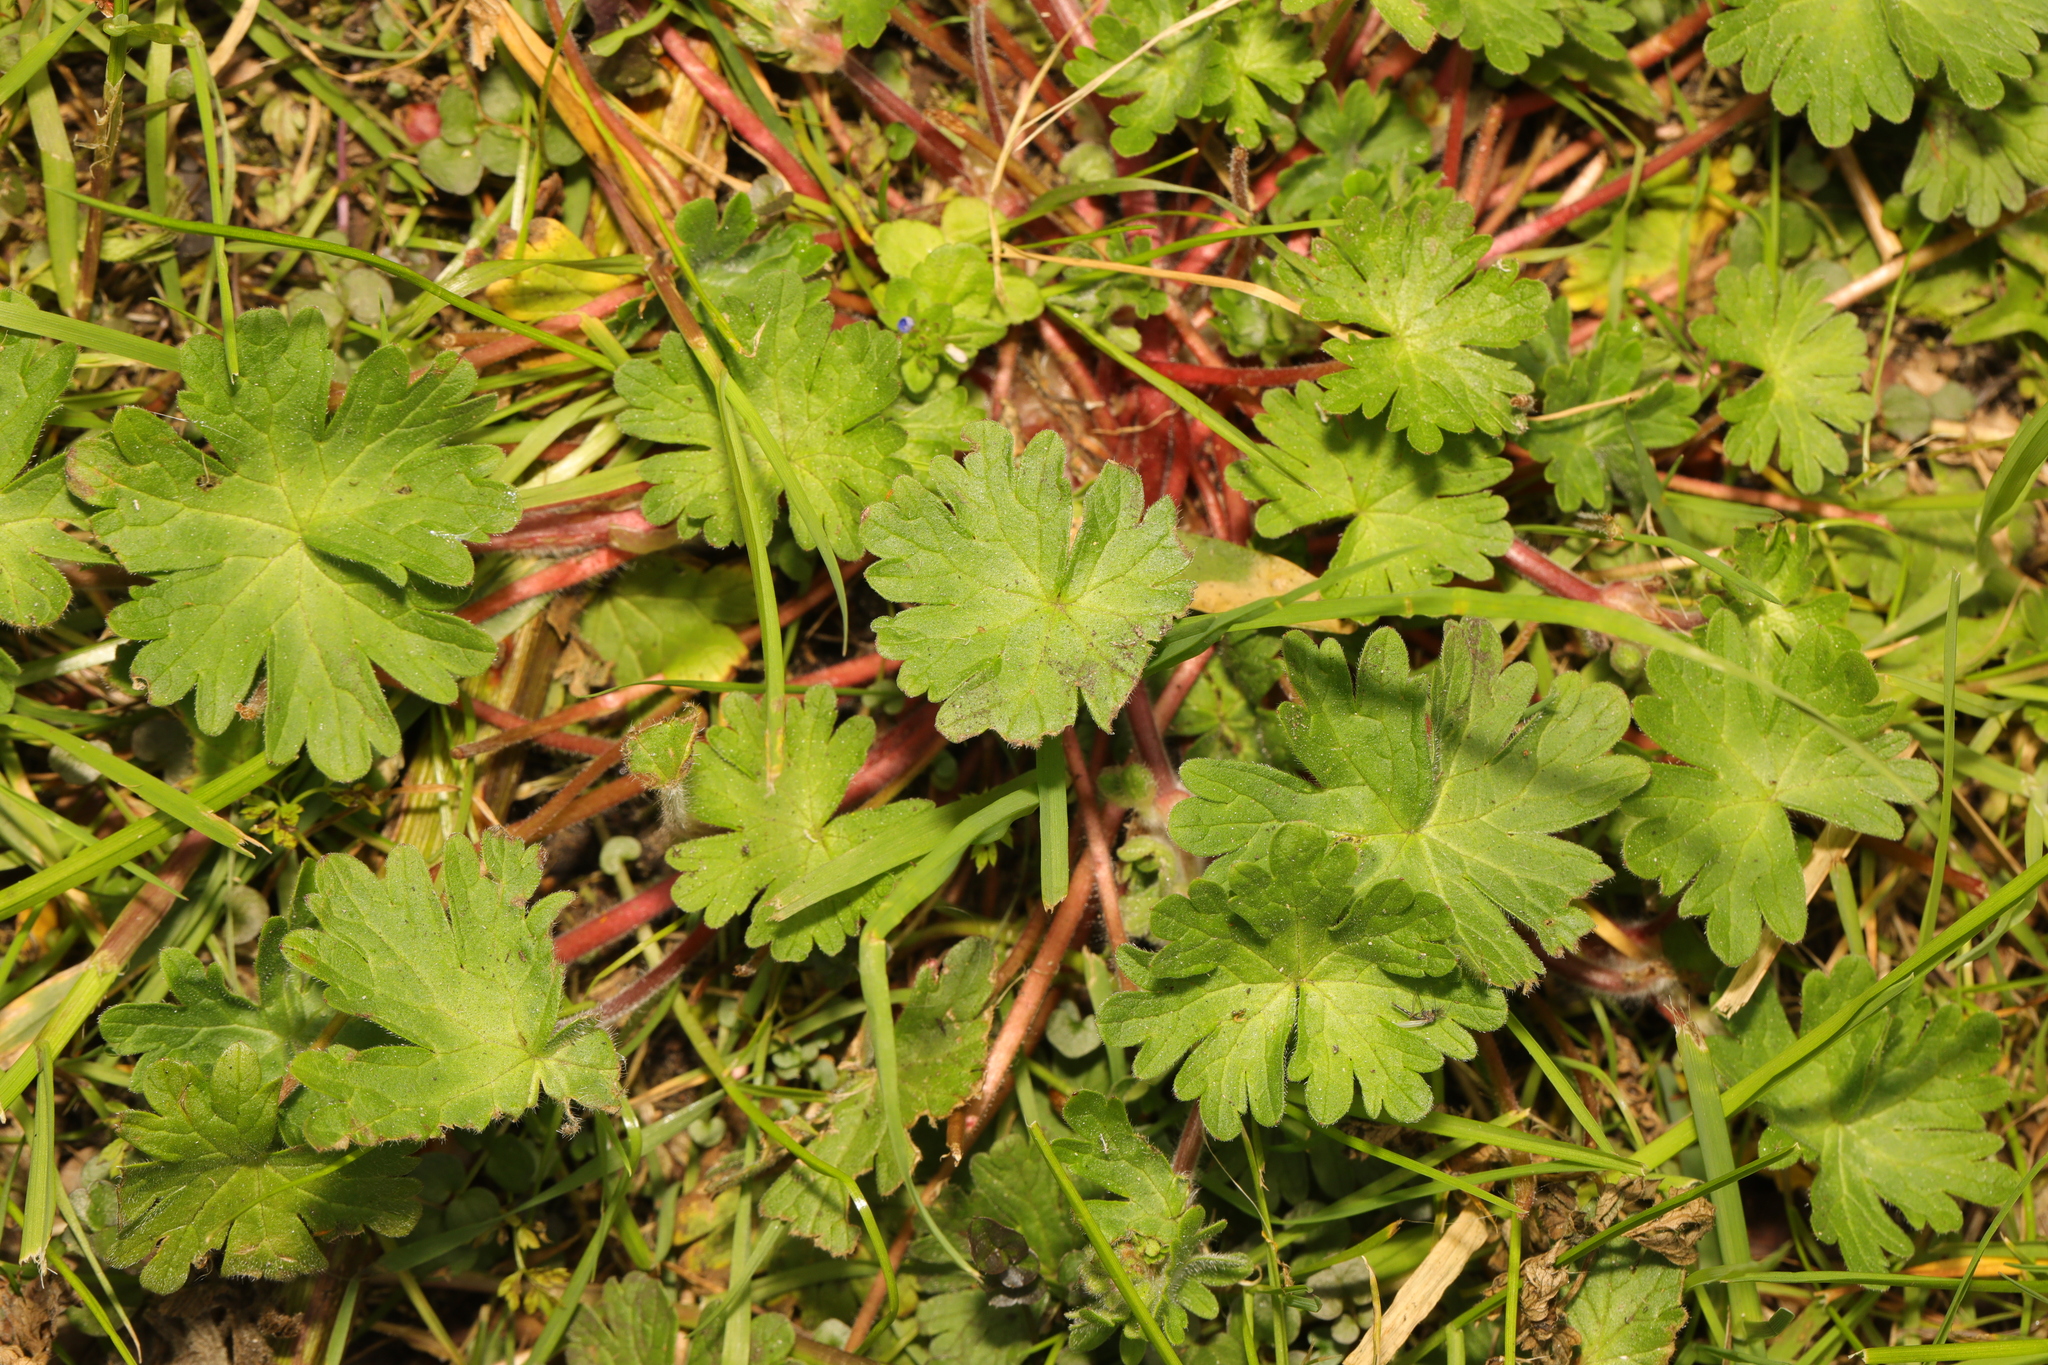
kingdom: Plantae
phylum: Tracheophyta
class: Magnoliopsida
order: Geraniales
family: Geraniaceae
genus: Geranium
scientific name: Geranium molle
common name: Dove's-foot crane's-bill
